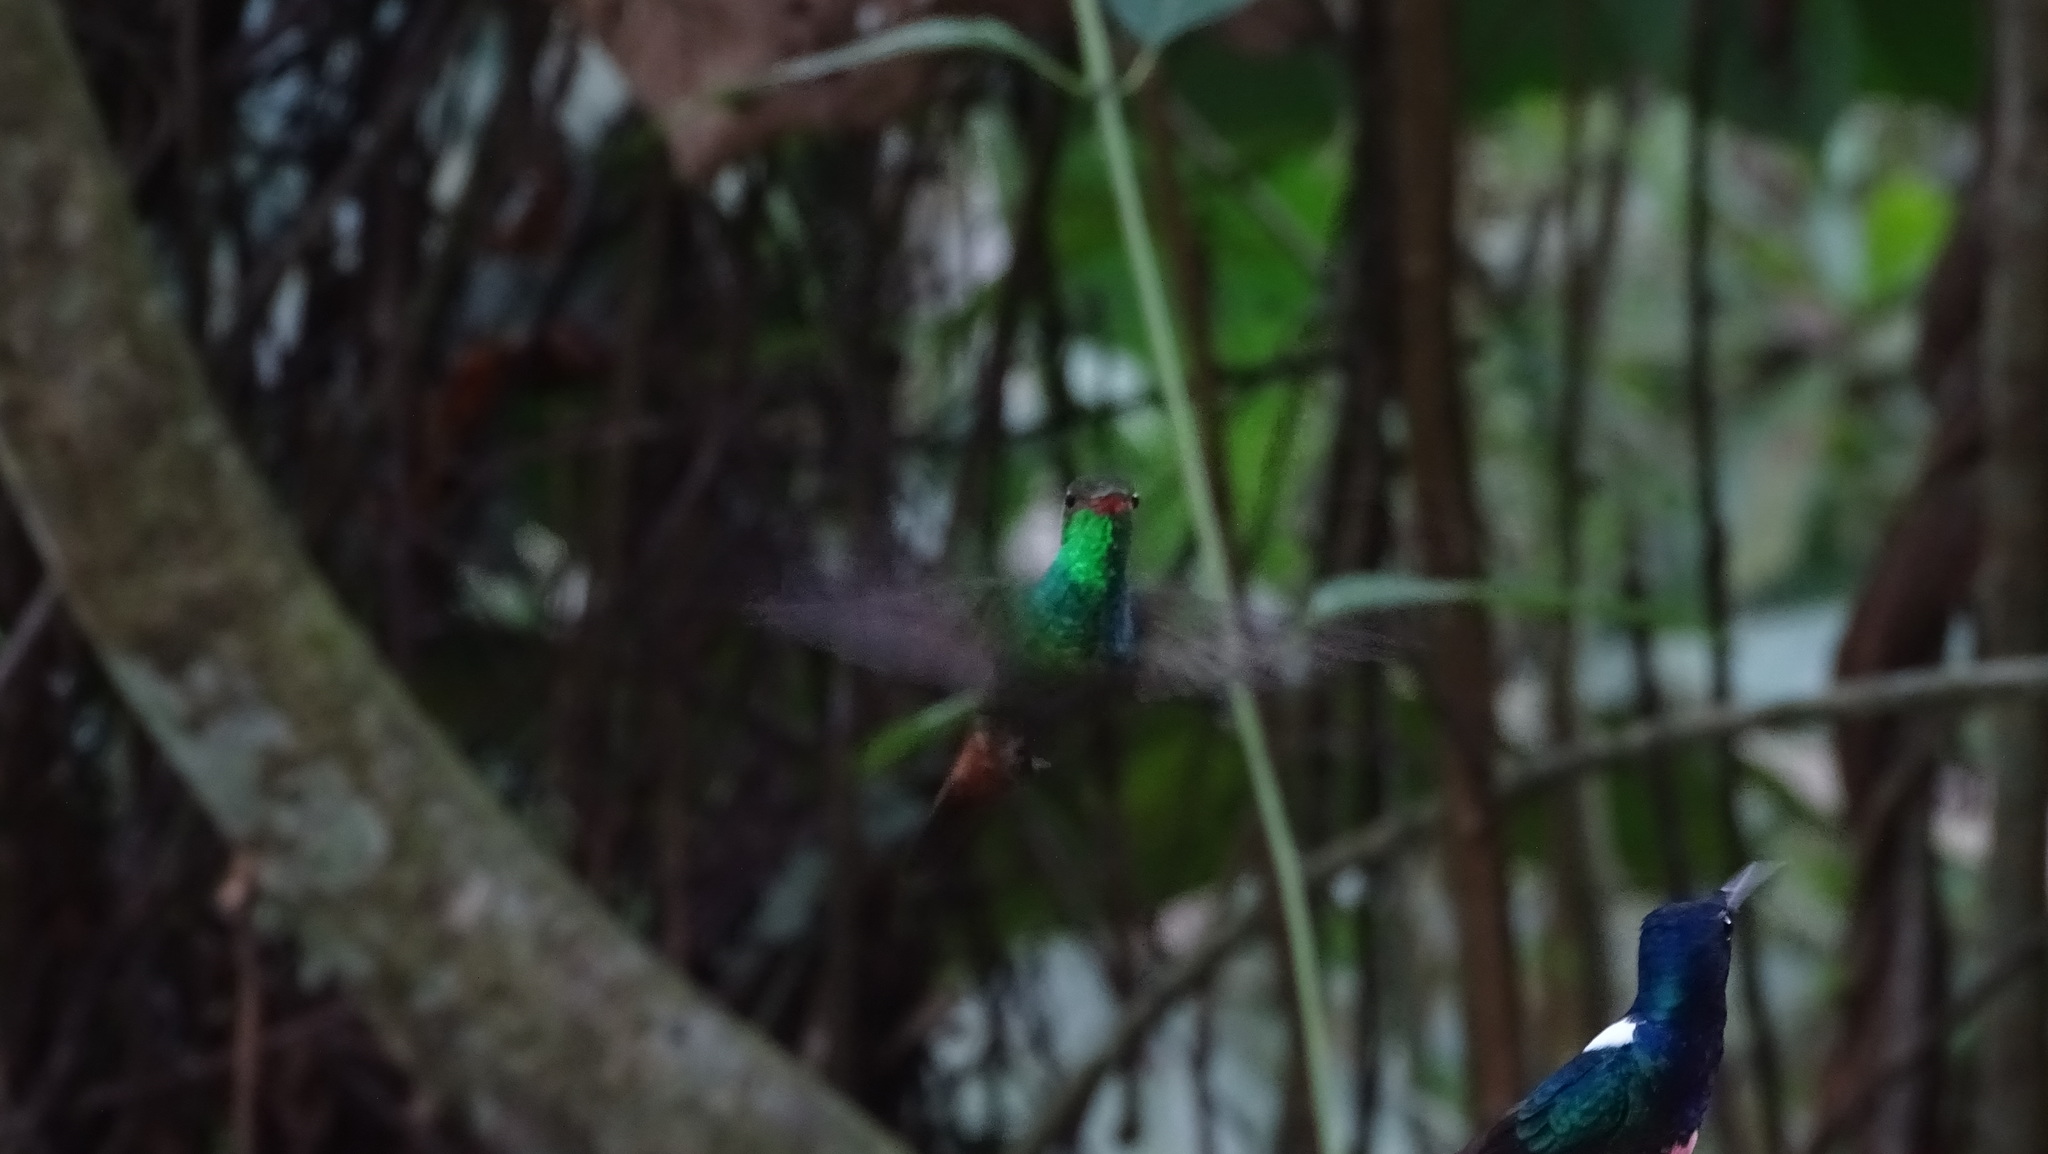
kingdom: Animalia
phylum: Chordata
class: Aves
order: Apodiformes
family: Trochilidae
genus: Amazilia
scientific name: Amazilia tzacatl
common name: Rufous-tailed hummingbird
